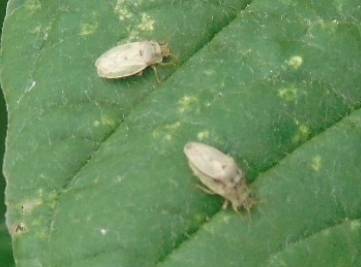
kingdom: Animalia
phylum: Arthropoda
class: Insecta
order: Hemiptera
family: Piesmatidae
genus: Parapiesma
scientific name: Parapiesma cinereum
